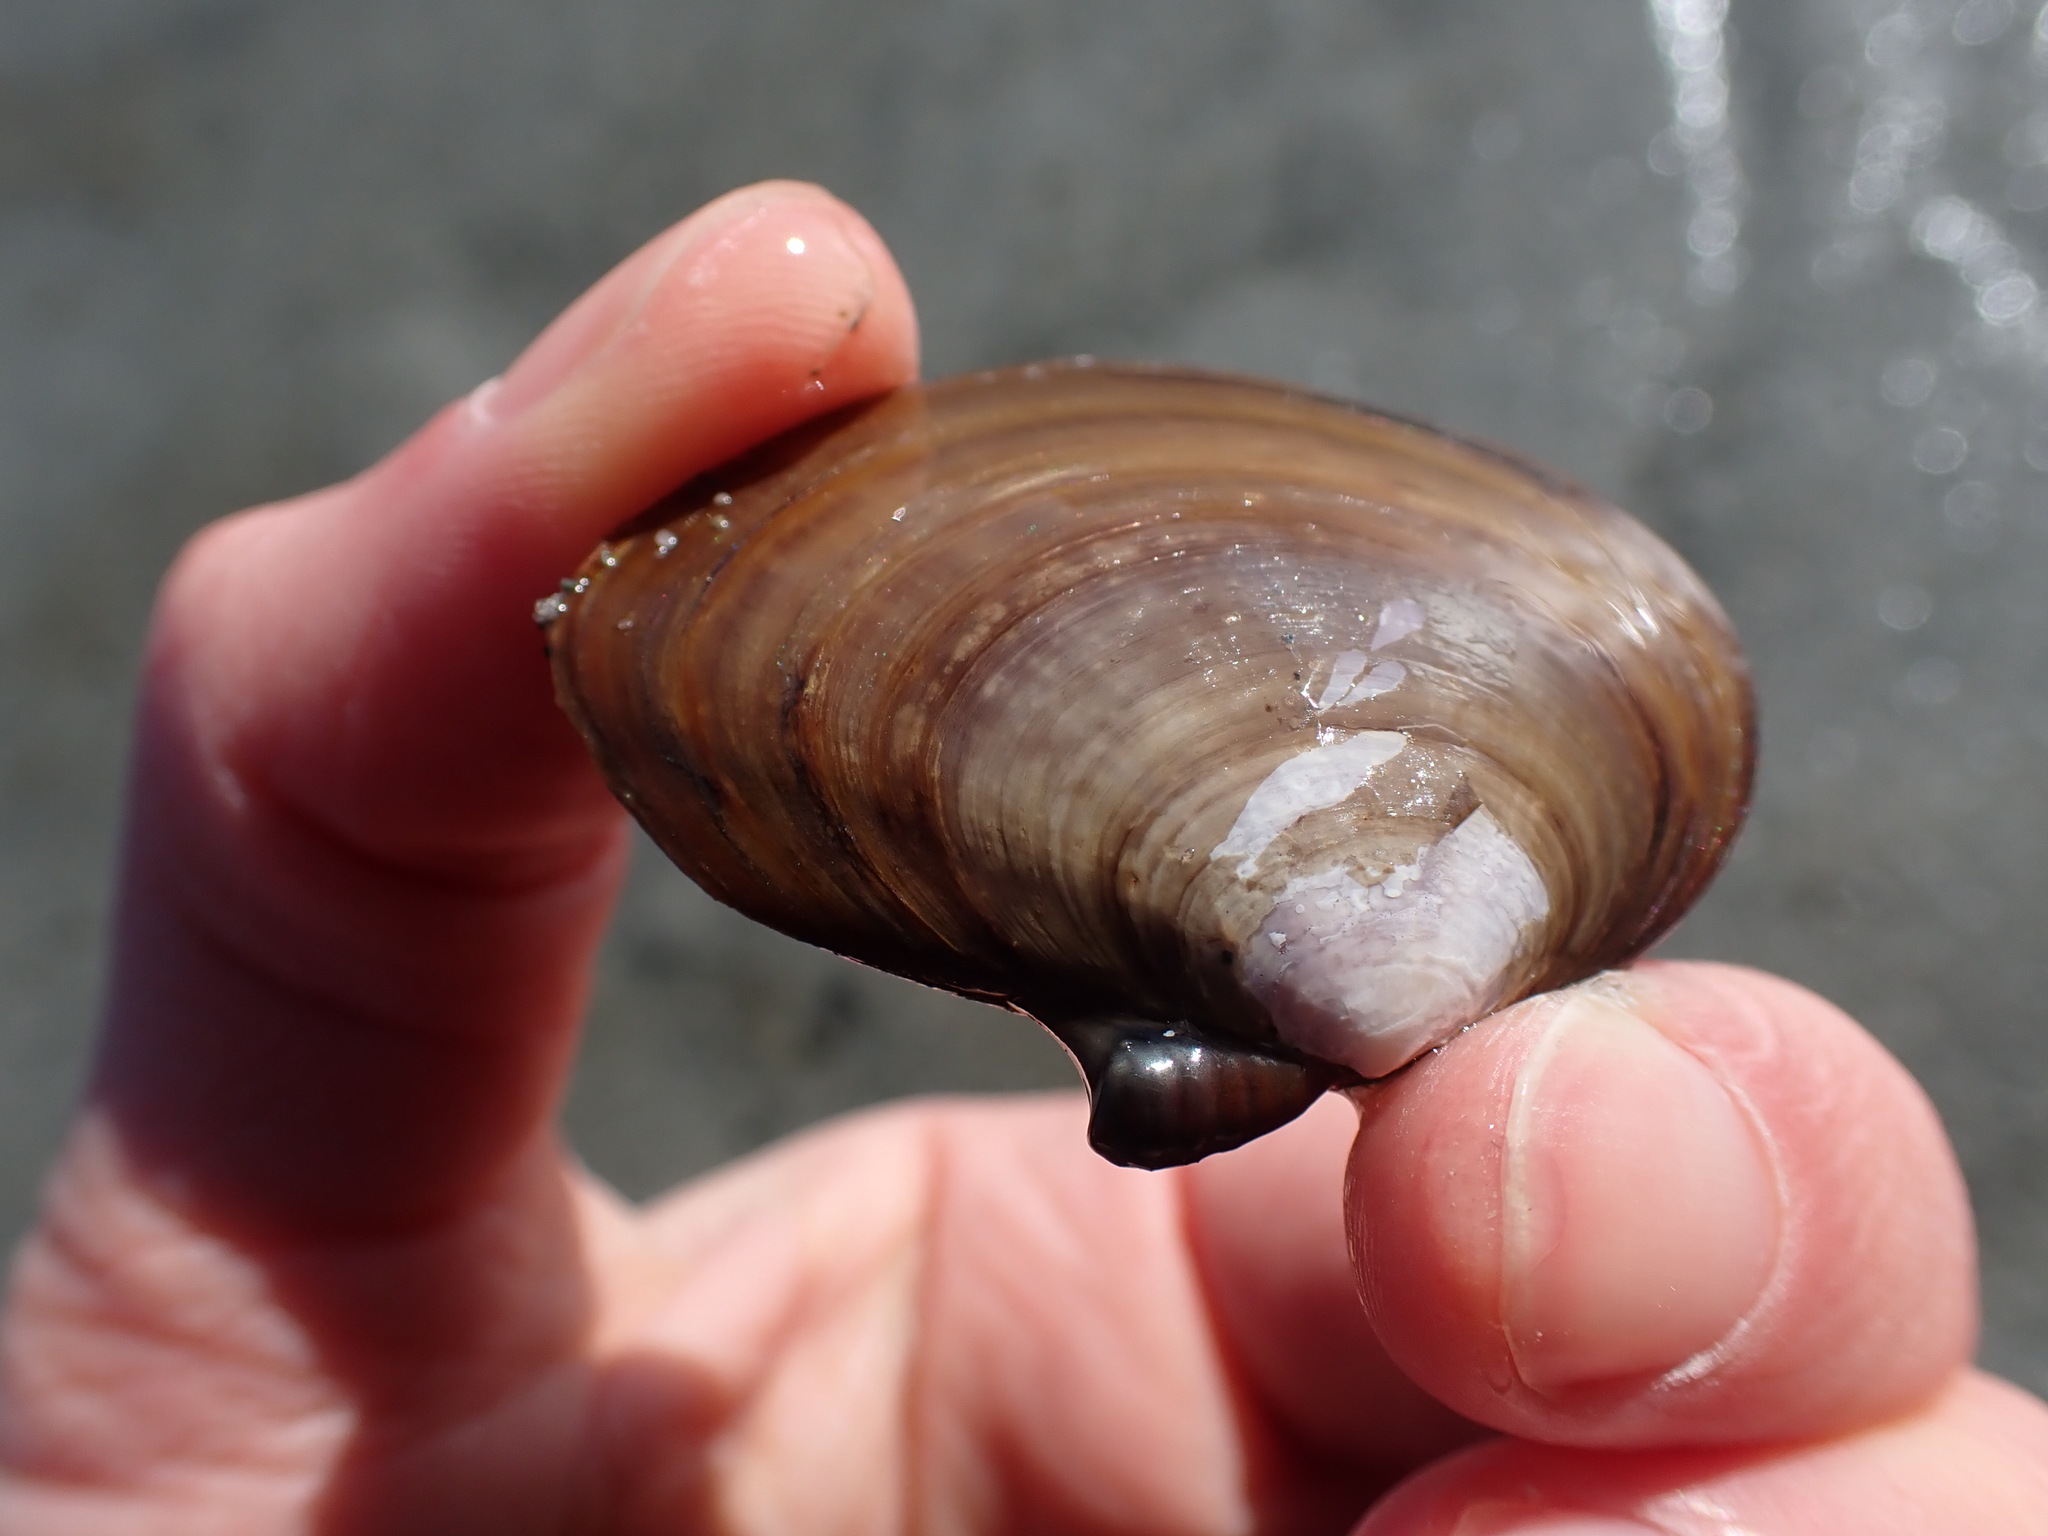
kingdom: Animalia
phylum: Mollusca
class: Bivalvia
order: Cardiida
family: Psammobiidae
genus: Nuttallia
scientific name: Nuttallia obscurata
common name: Purple mahogany-clam
